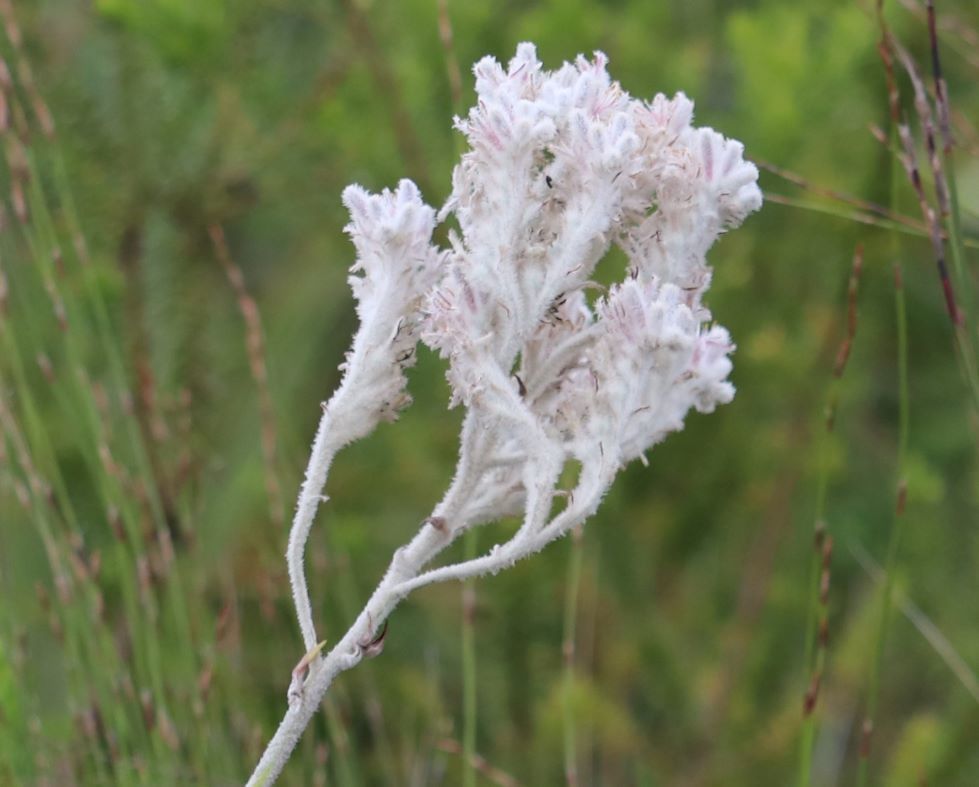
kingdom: Plantae
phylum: Tracheophyta
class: Liliopsida
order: Asparagales
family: Lanariaceae
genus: Lanaria
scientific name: Lanaria lanata
